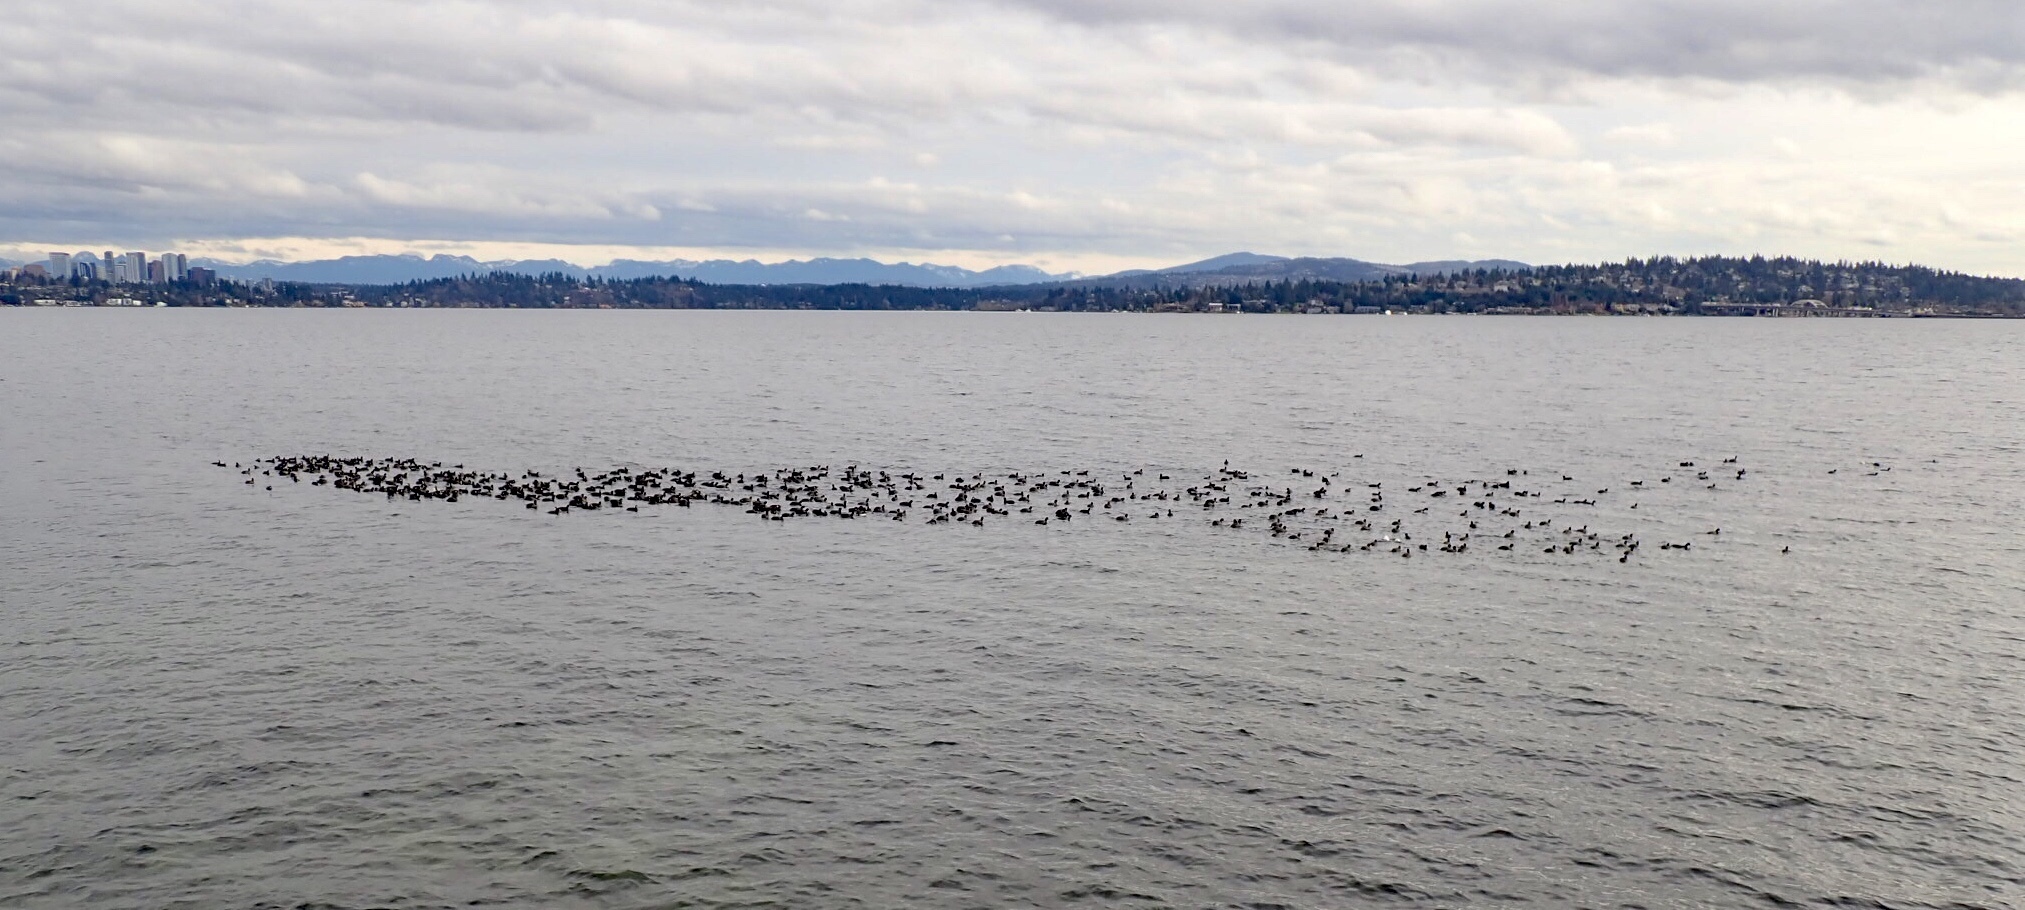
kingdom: Animalia
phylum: Chordata
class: Aves
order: Gruiformes
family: Rallidae
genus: Fulica
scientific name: Fulica americana
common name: American coot
